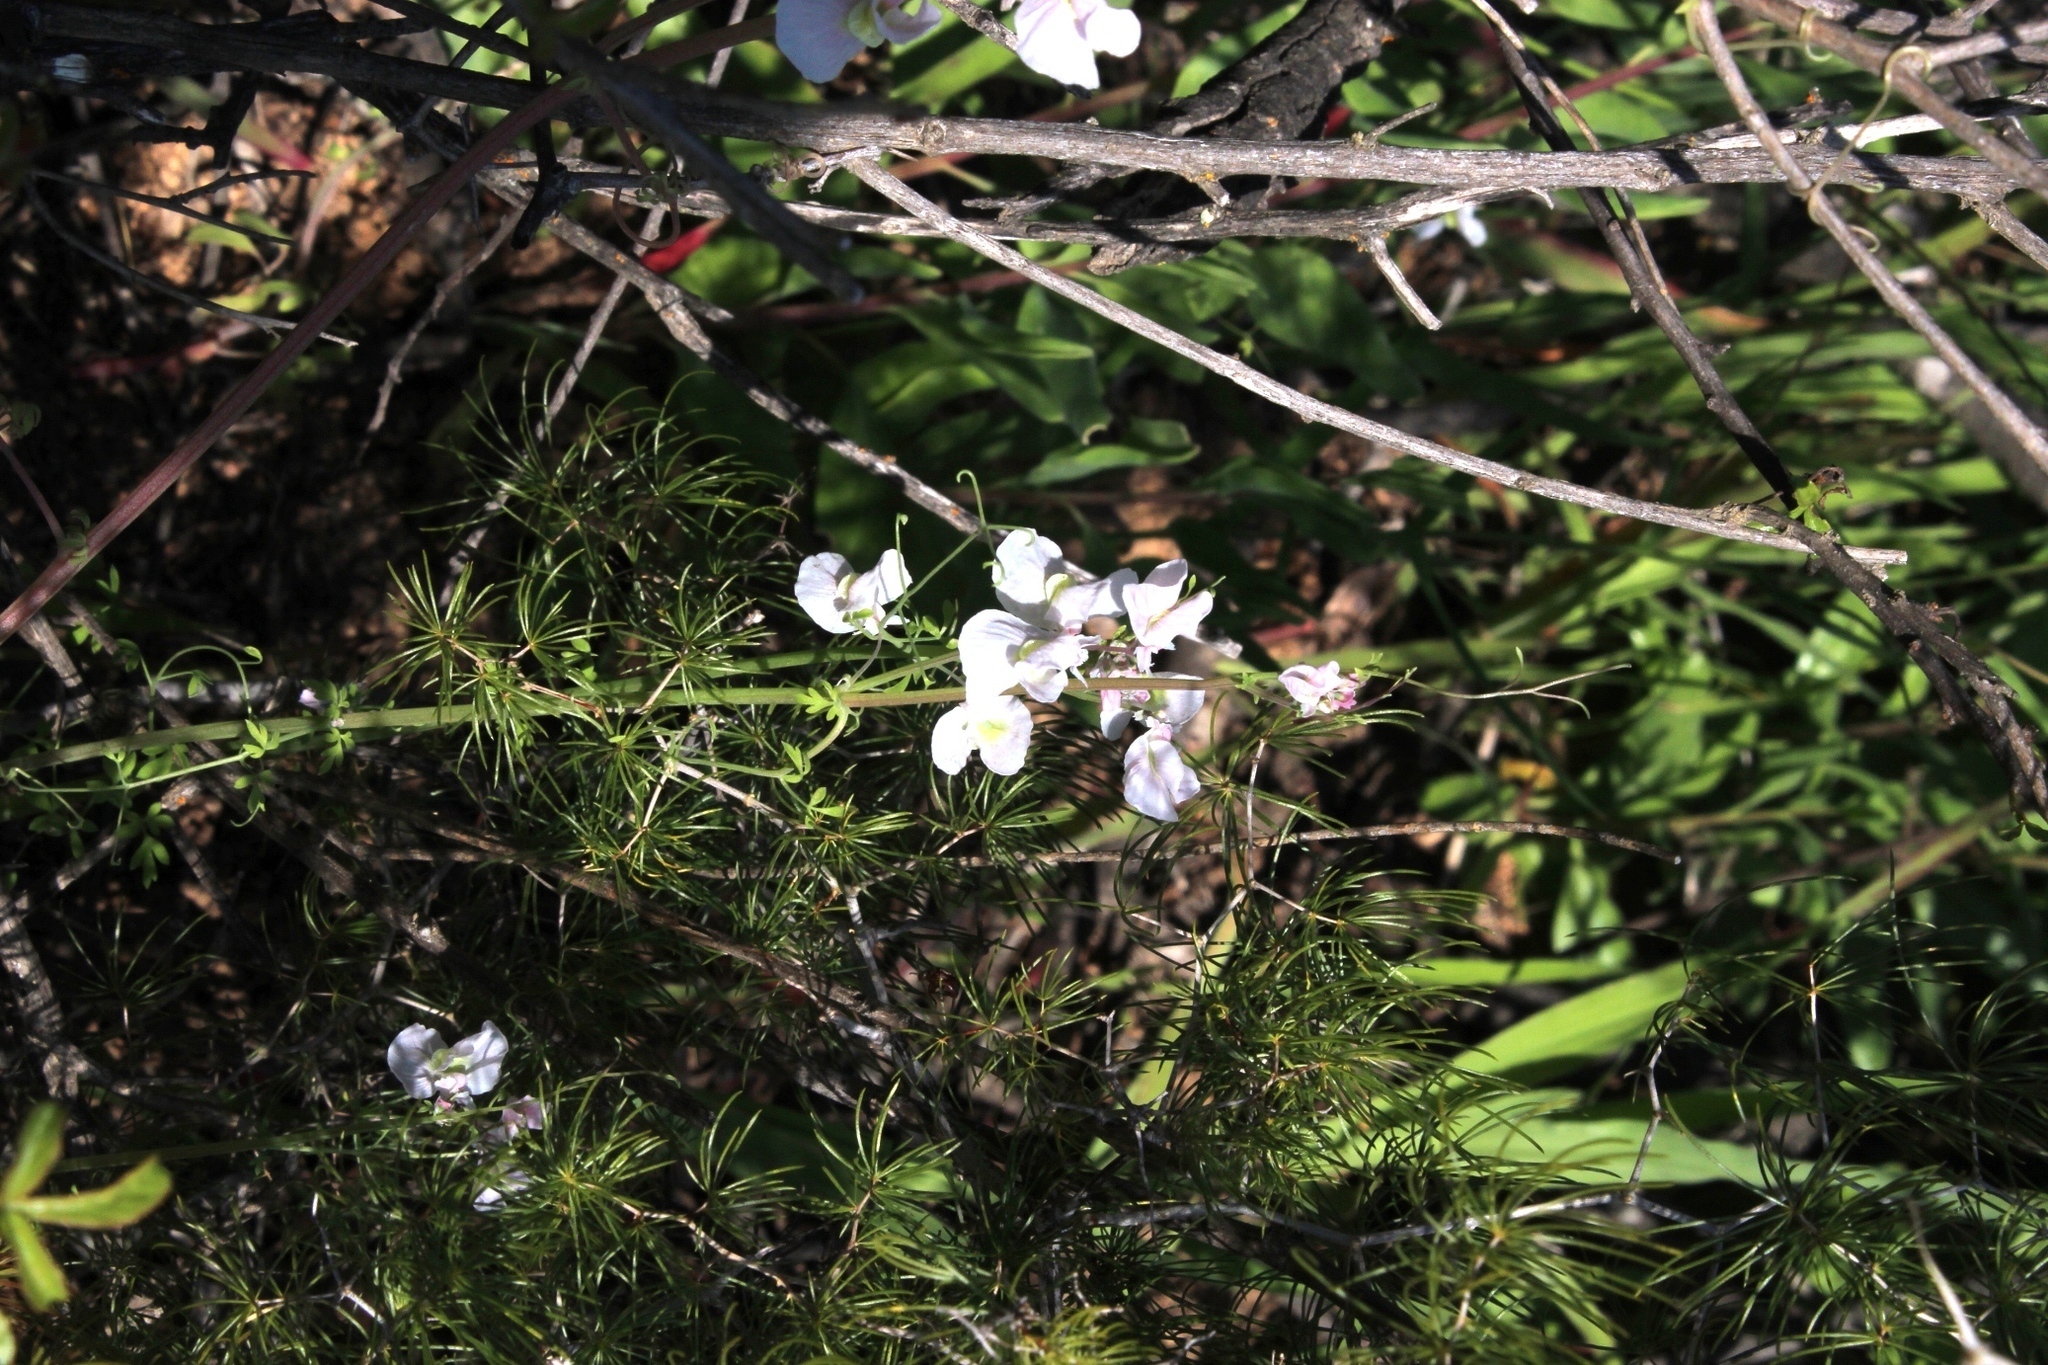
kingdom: Plantae
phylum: Tracheophyta
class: Magnoliopsida
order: Ranunculales
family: Papaveraceae
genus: Cysticapnos
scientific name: Cysticapnos vesicaria
